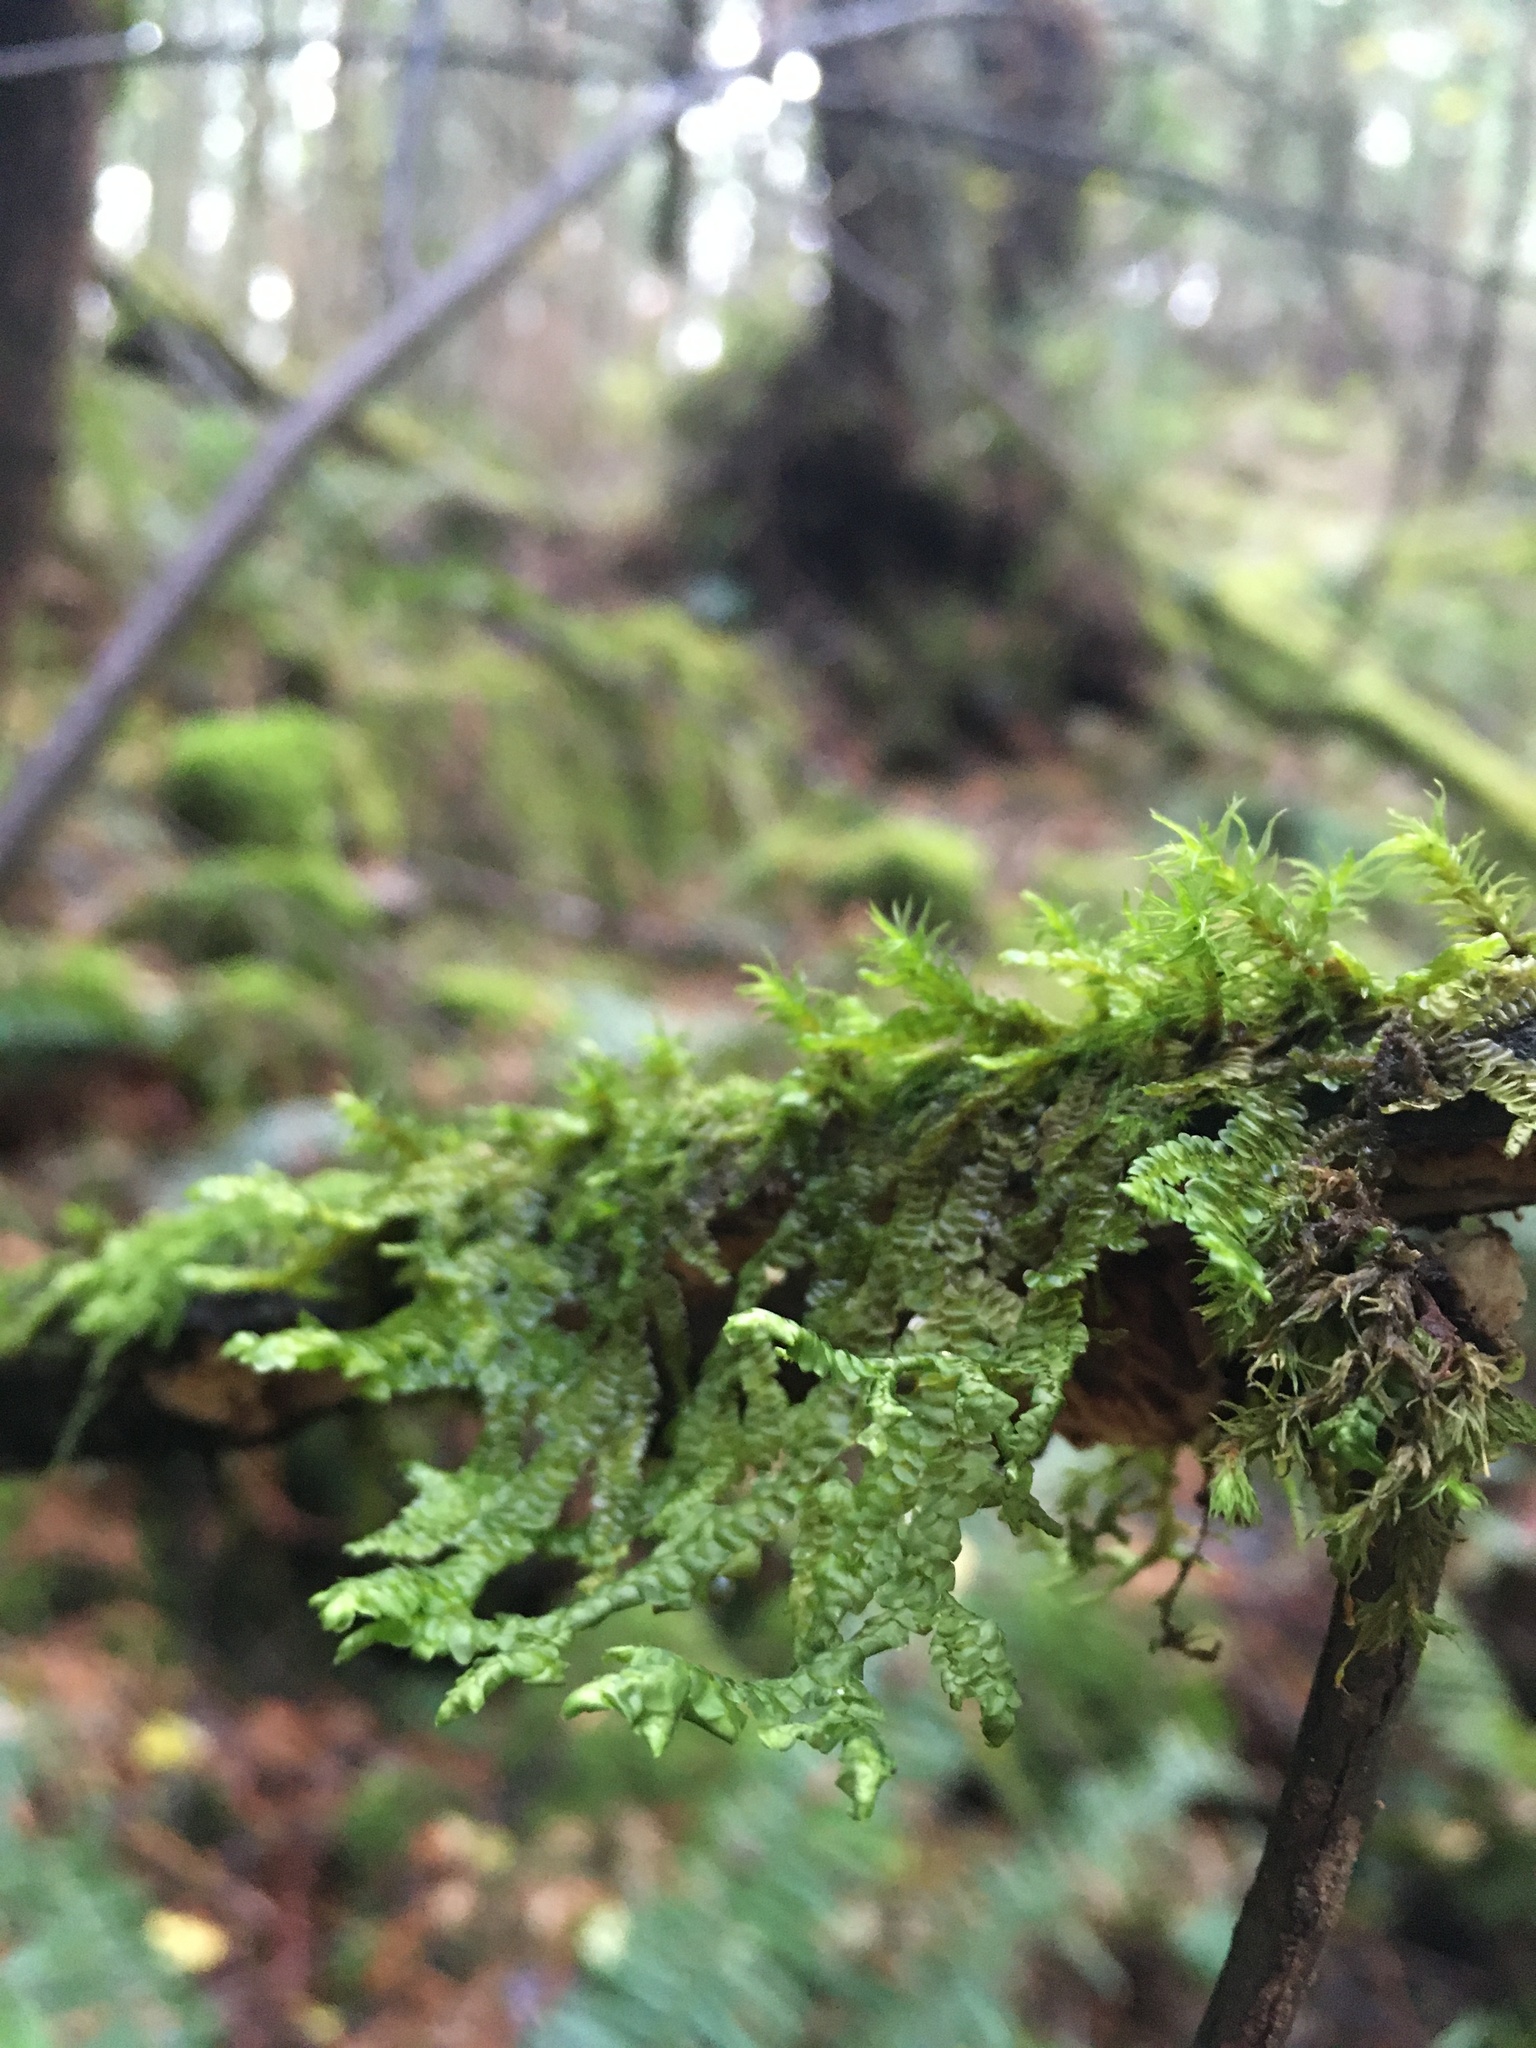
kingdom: Plantae
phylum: Marchantiophyta
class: Jungermanniopsida
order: Porellales
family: Porellaceae
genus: Porella
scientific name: Porella navicularis
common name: Tree ruffle liverwort
